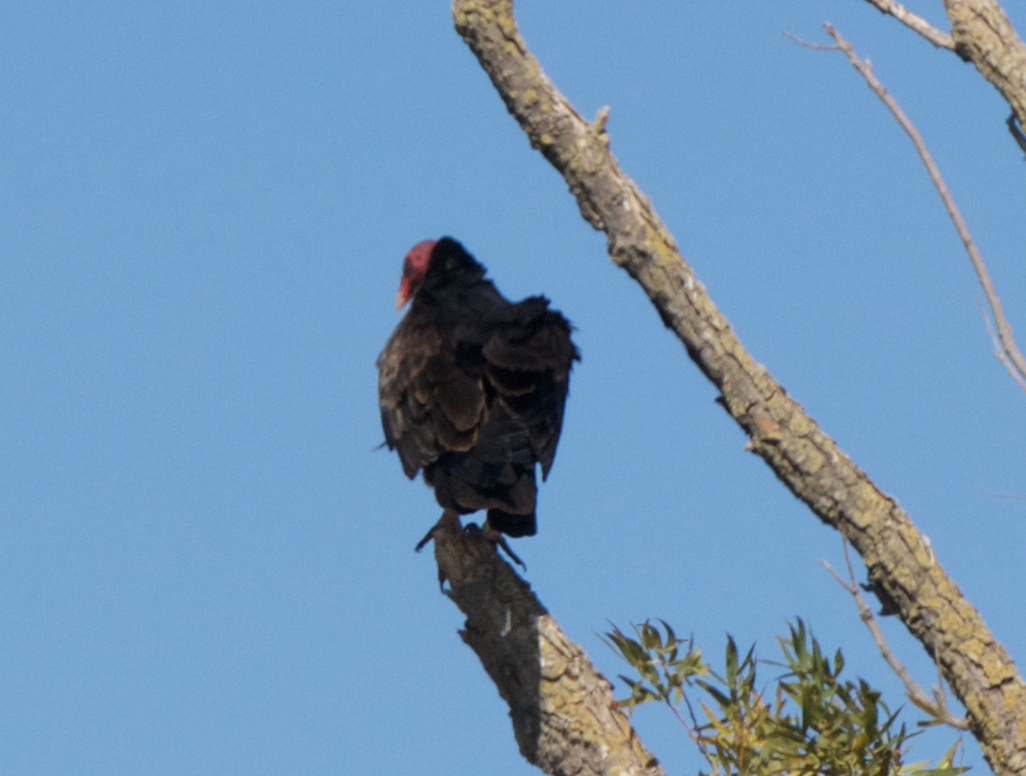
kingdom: Animalia
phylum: Chordata
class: Aves
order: Accipitriformes
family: Cathartidae
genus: Cathartes
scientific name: Cathartes aura
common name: Turkey vulture
